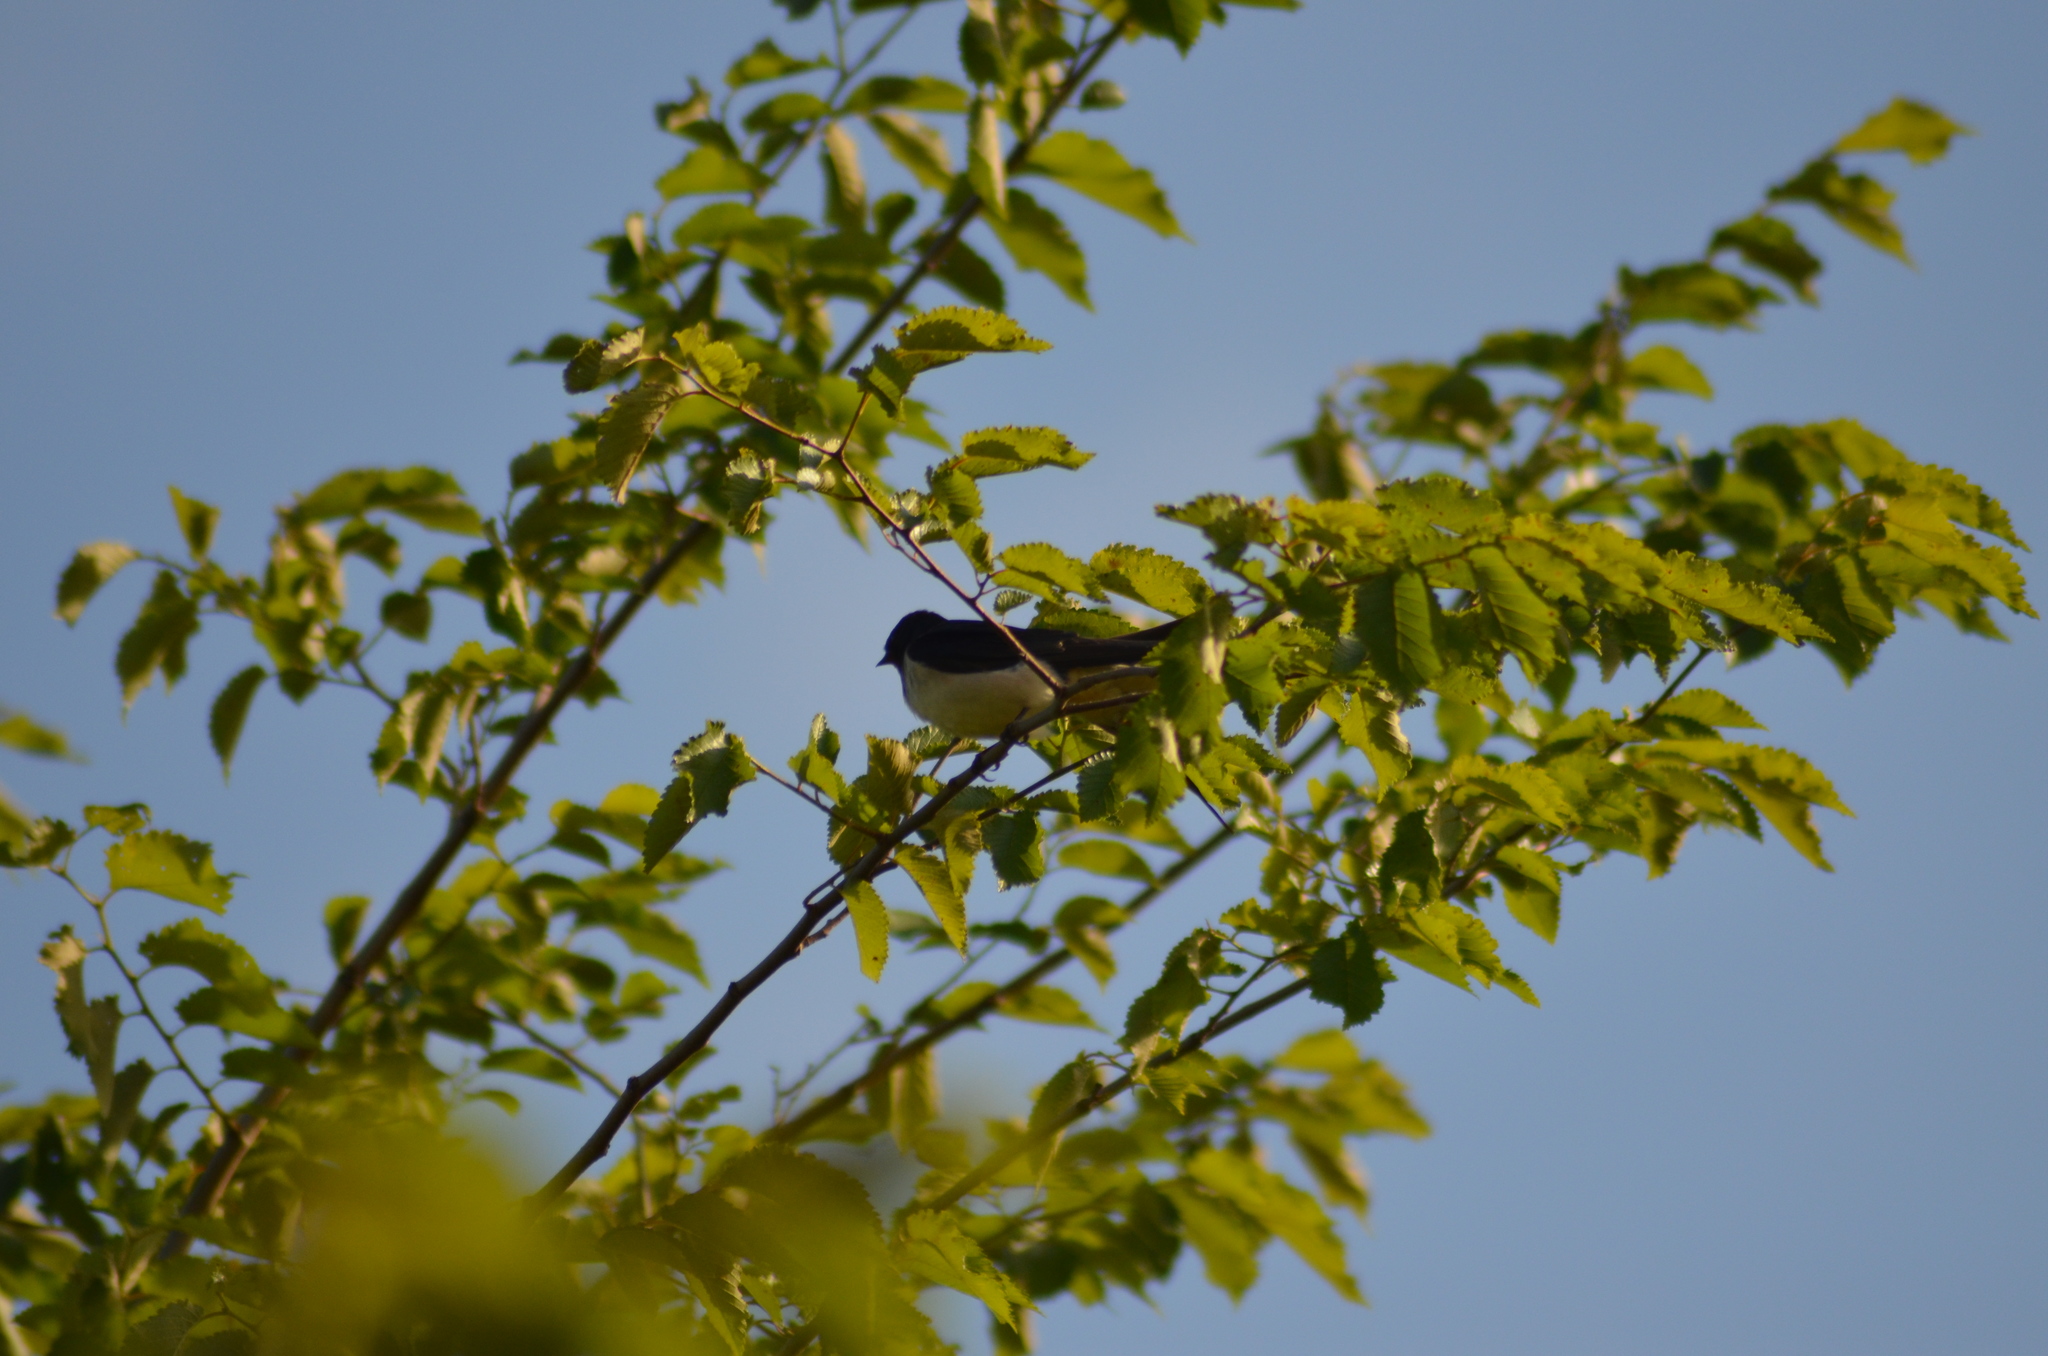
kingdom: Animalia
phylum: Chordata
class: Aves
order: Passeriformes
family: Hirundinidae
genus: Hirundo
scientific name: Hirundo rustica
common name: Barn swallow
